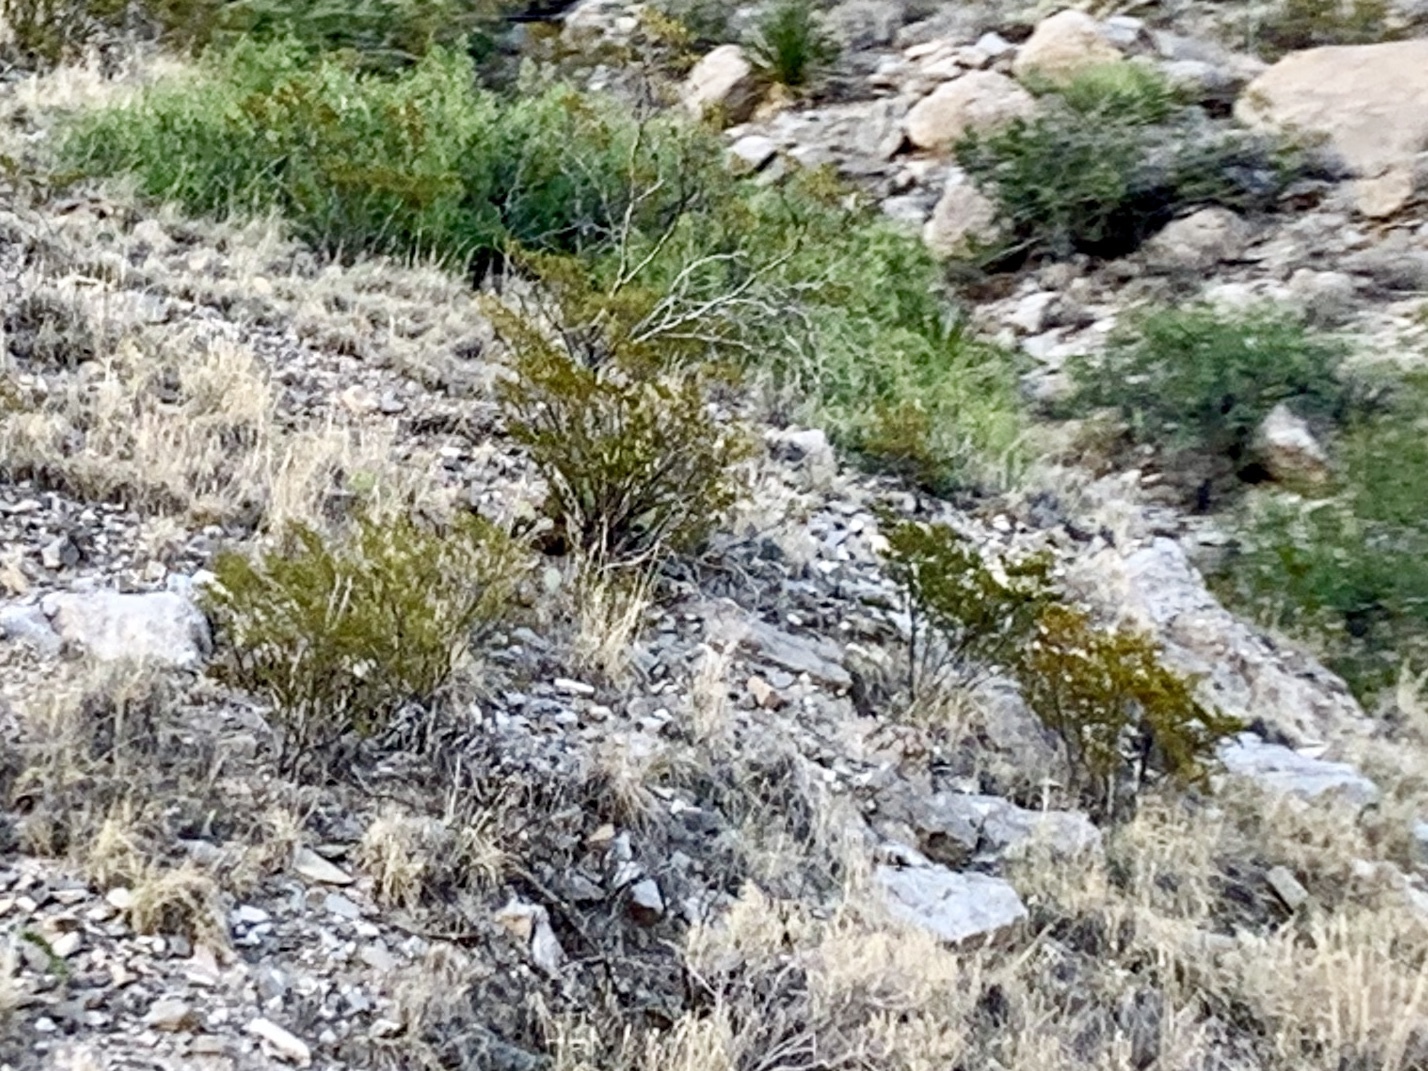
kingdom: Plantae
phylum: Tracheophyta
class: Magnoliopsida
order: Zygophyllales
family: Zygophyllaceae
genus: Larrea
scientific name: Larrea tridentata
